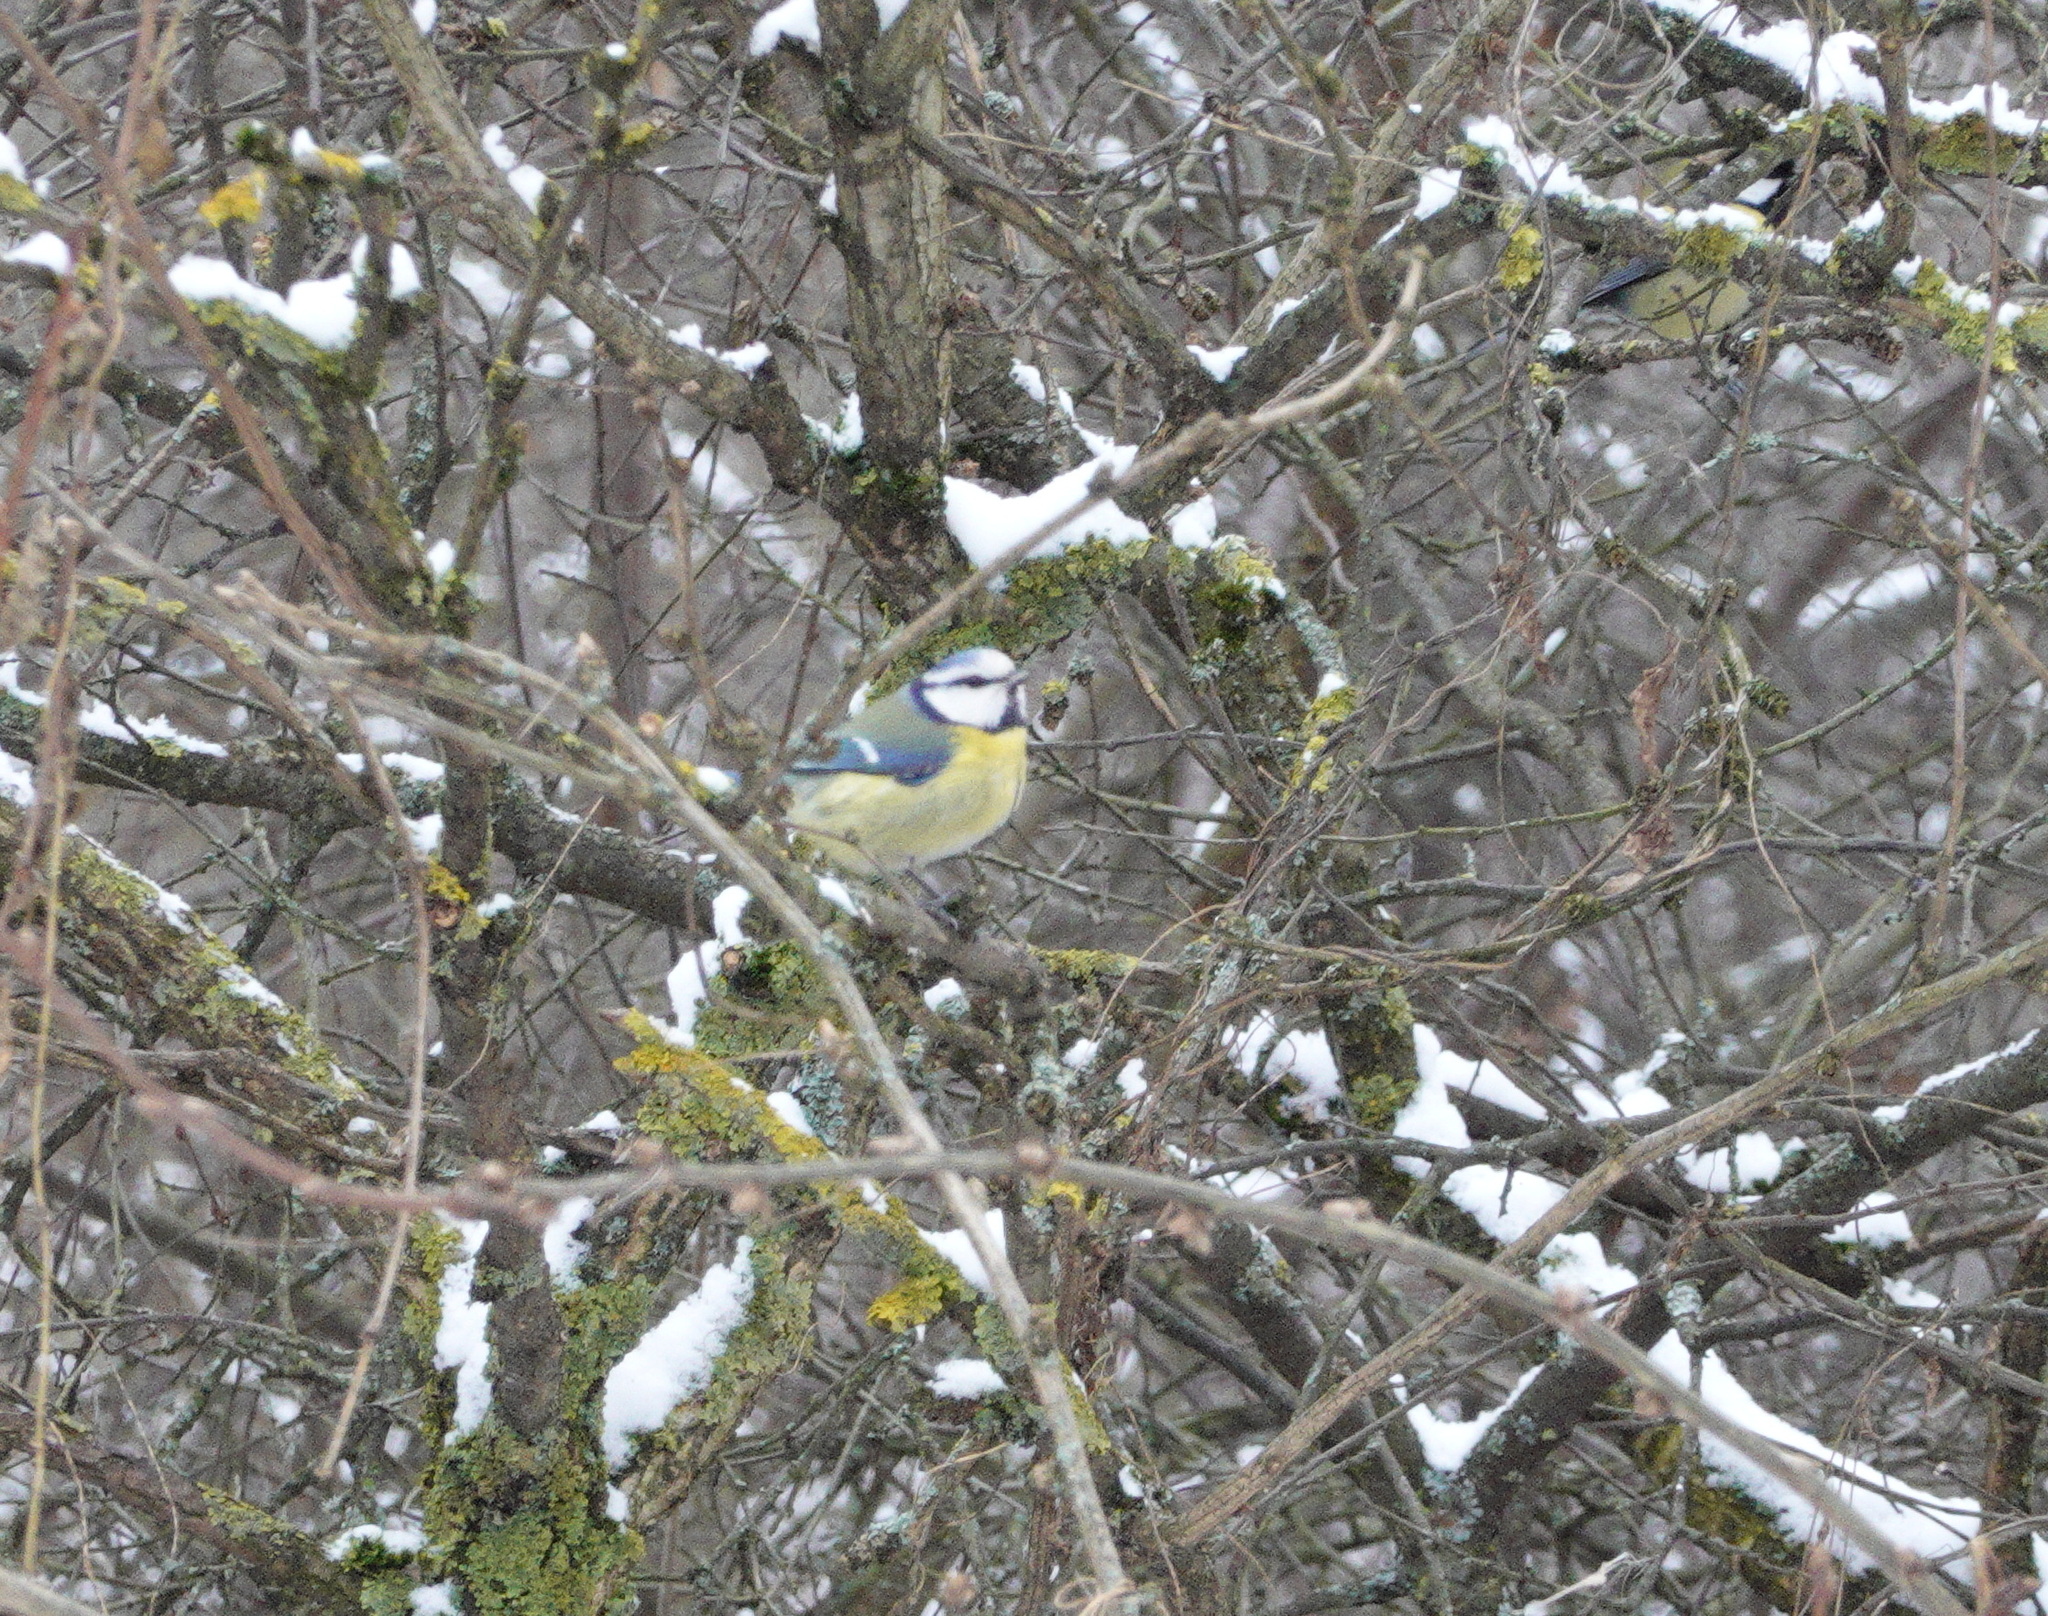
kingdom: Animalia
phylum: Chordata
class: Aves
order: Passeriformes
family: Paridae
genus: Cyanistes
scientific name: Cyanistes caeruleus
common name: Eurasian blue tit
